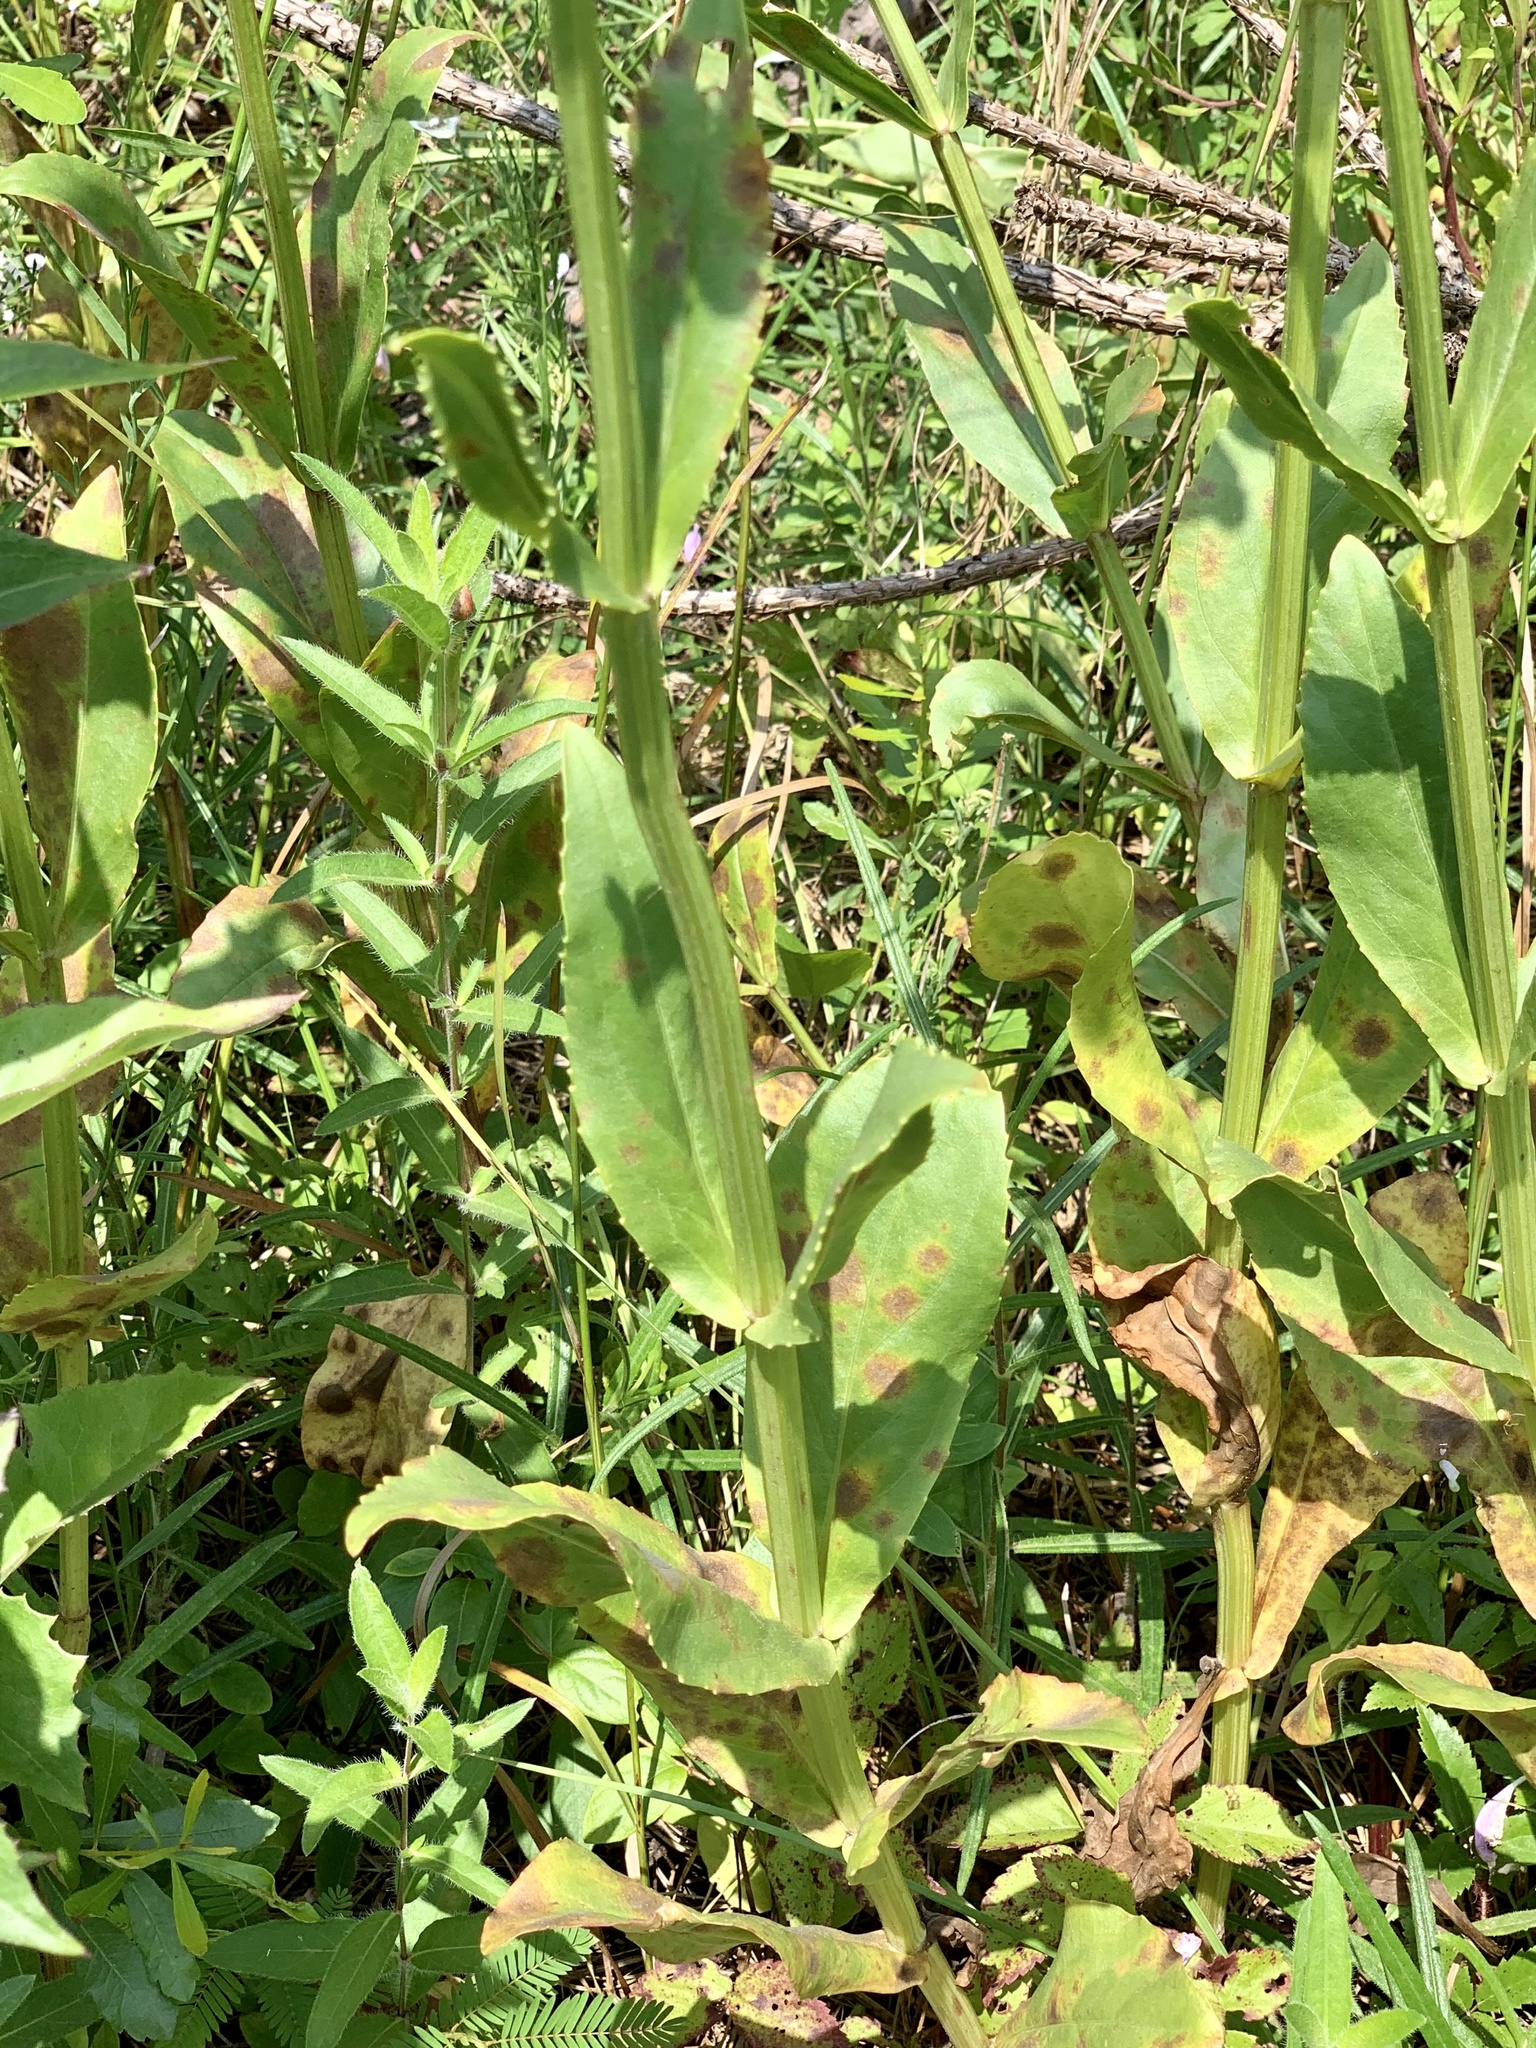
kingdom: Plantae
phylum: Tracheophyta
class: Magnoliopsida
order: Lamiales
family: Lamiaceae
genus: Physostegia
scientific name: Physostegia digitalis
